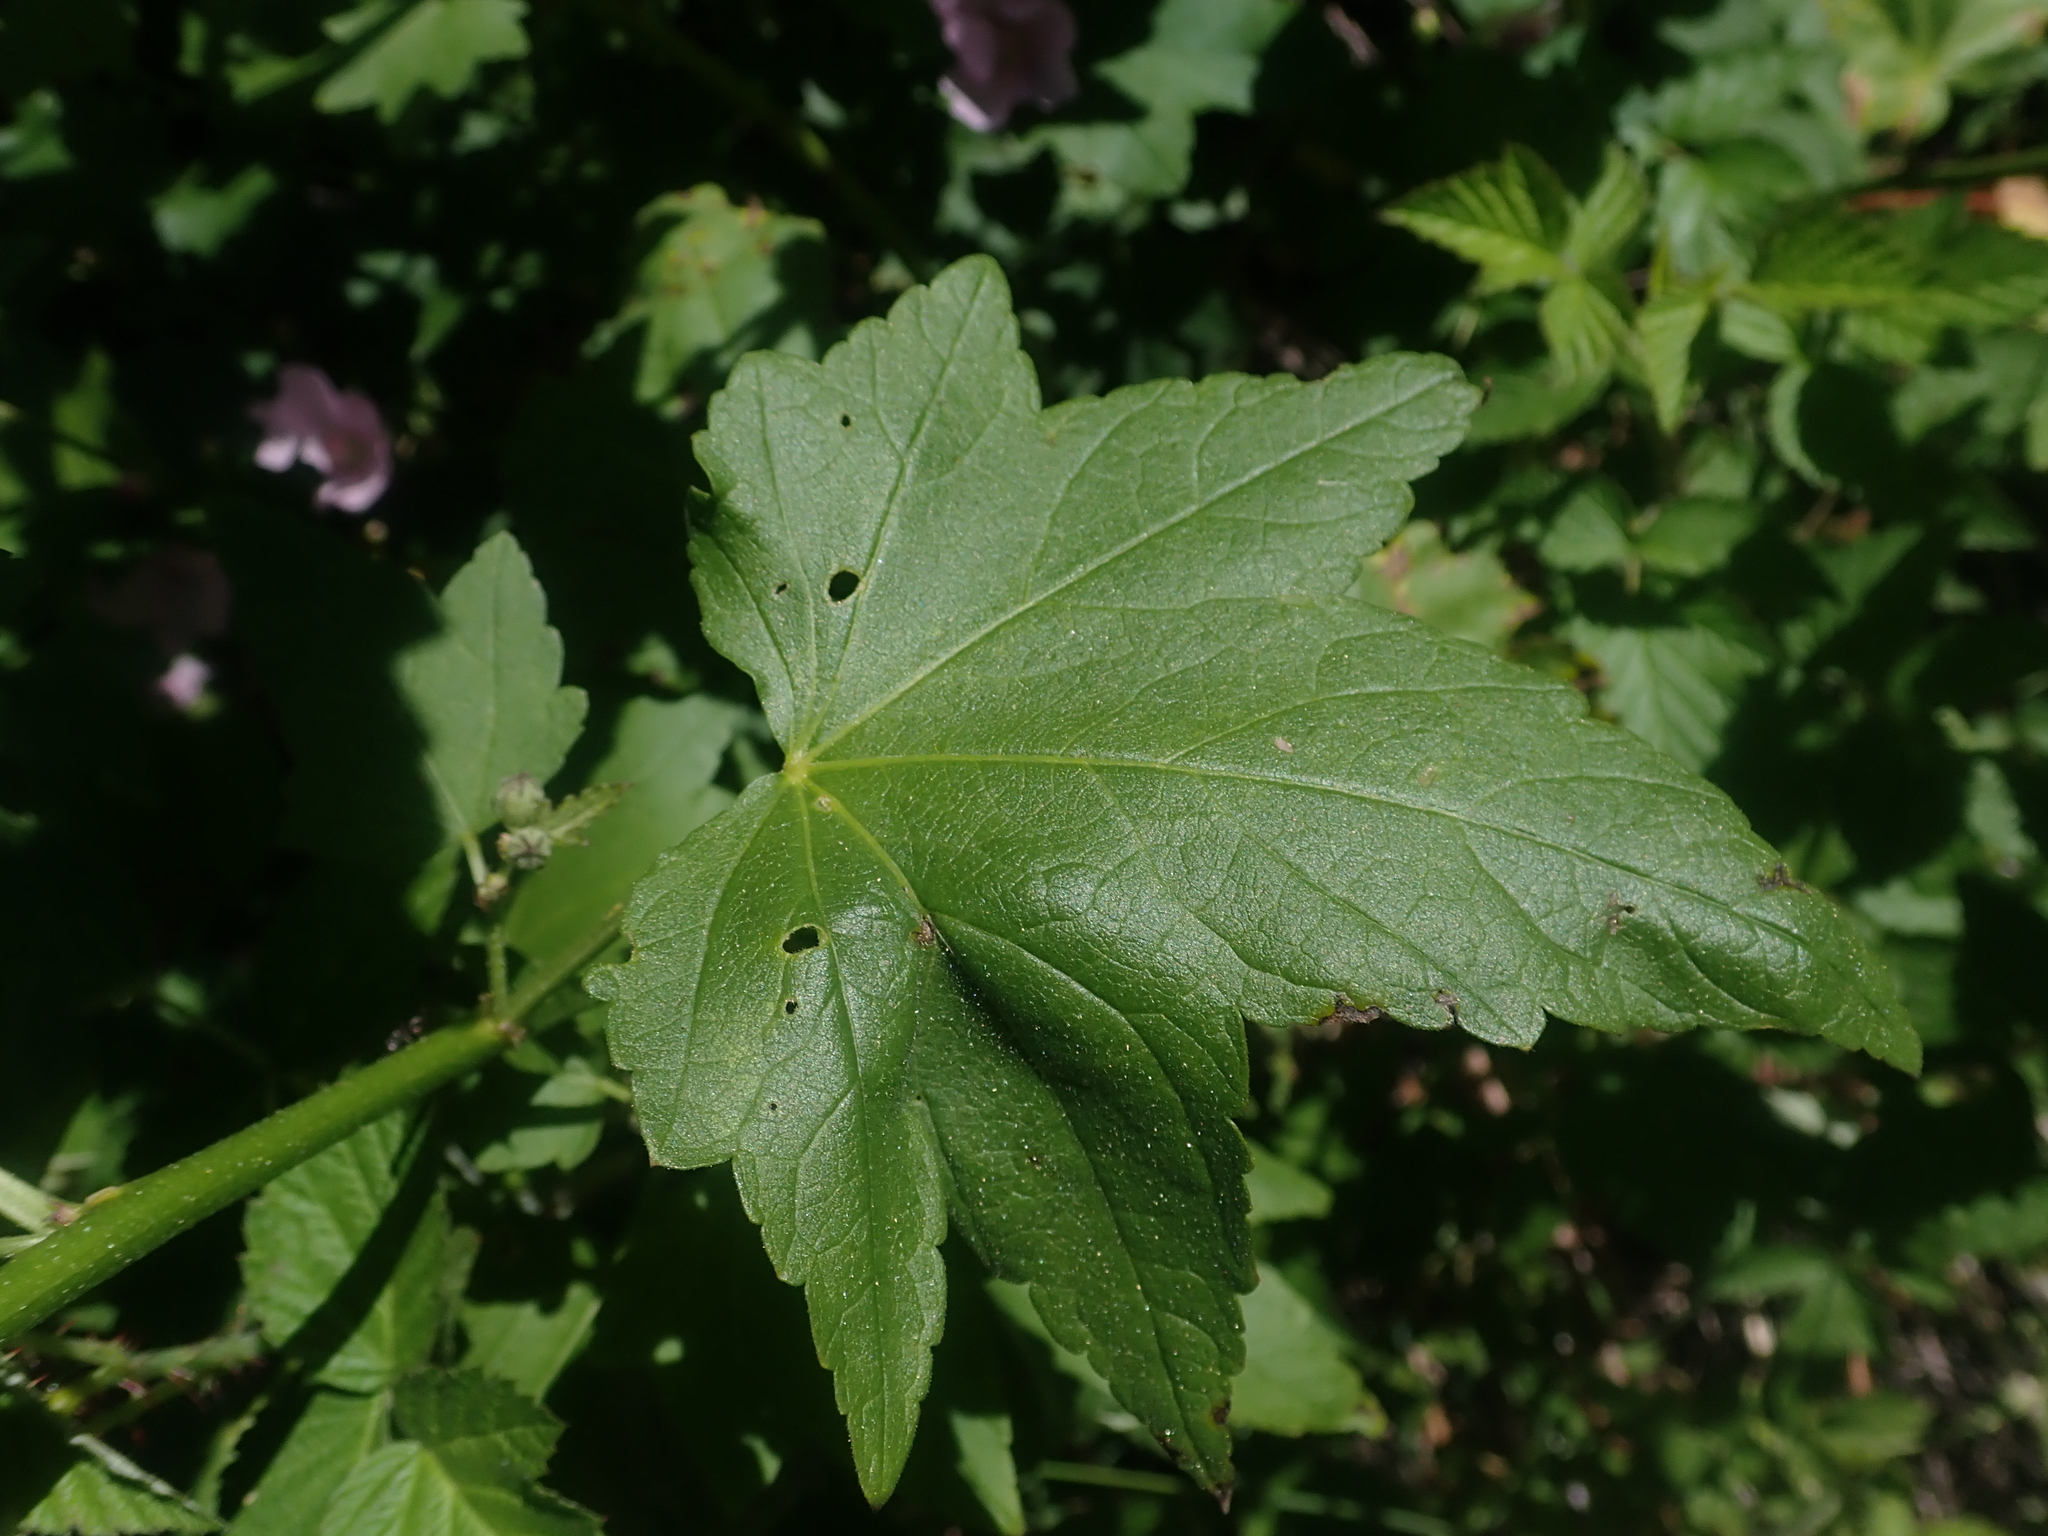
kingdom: Plantae
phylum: Tracheophyta
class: Magnoliopsida
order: Malvales
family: Malvaceae
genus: Iliamna
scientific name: Iliamna rivularis
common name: Wild hollyhock
